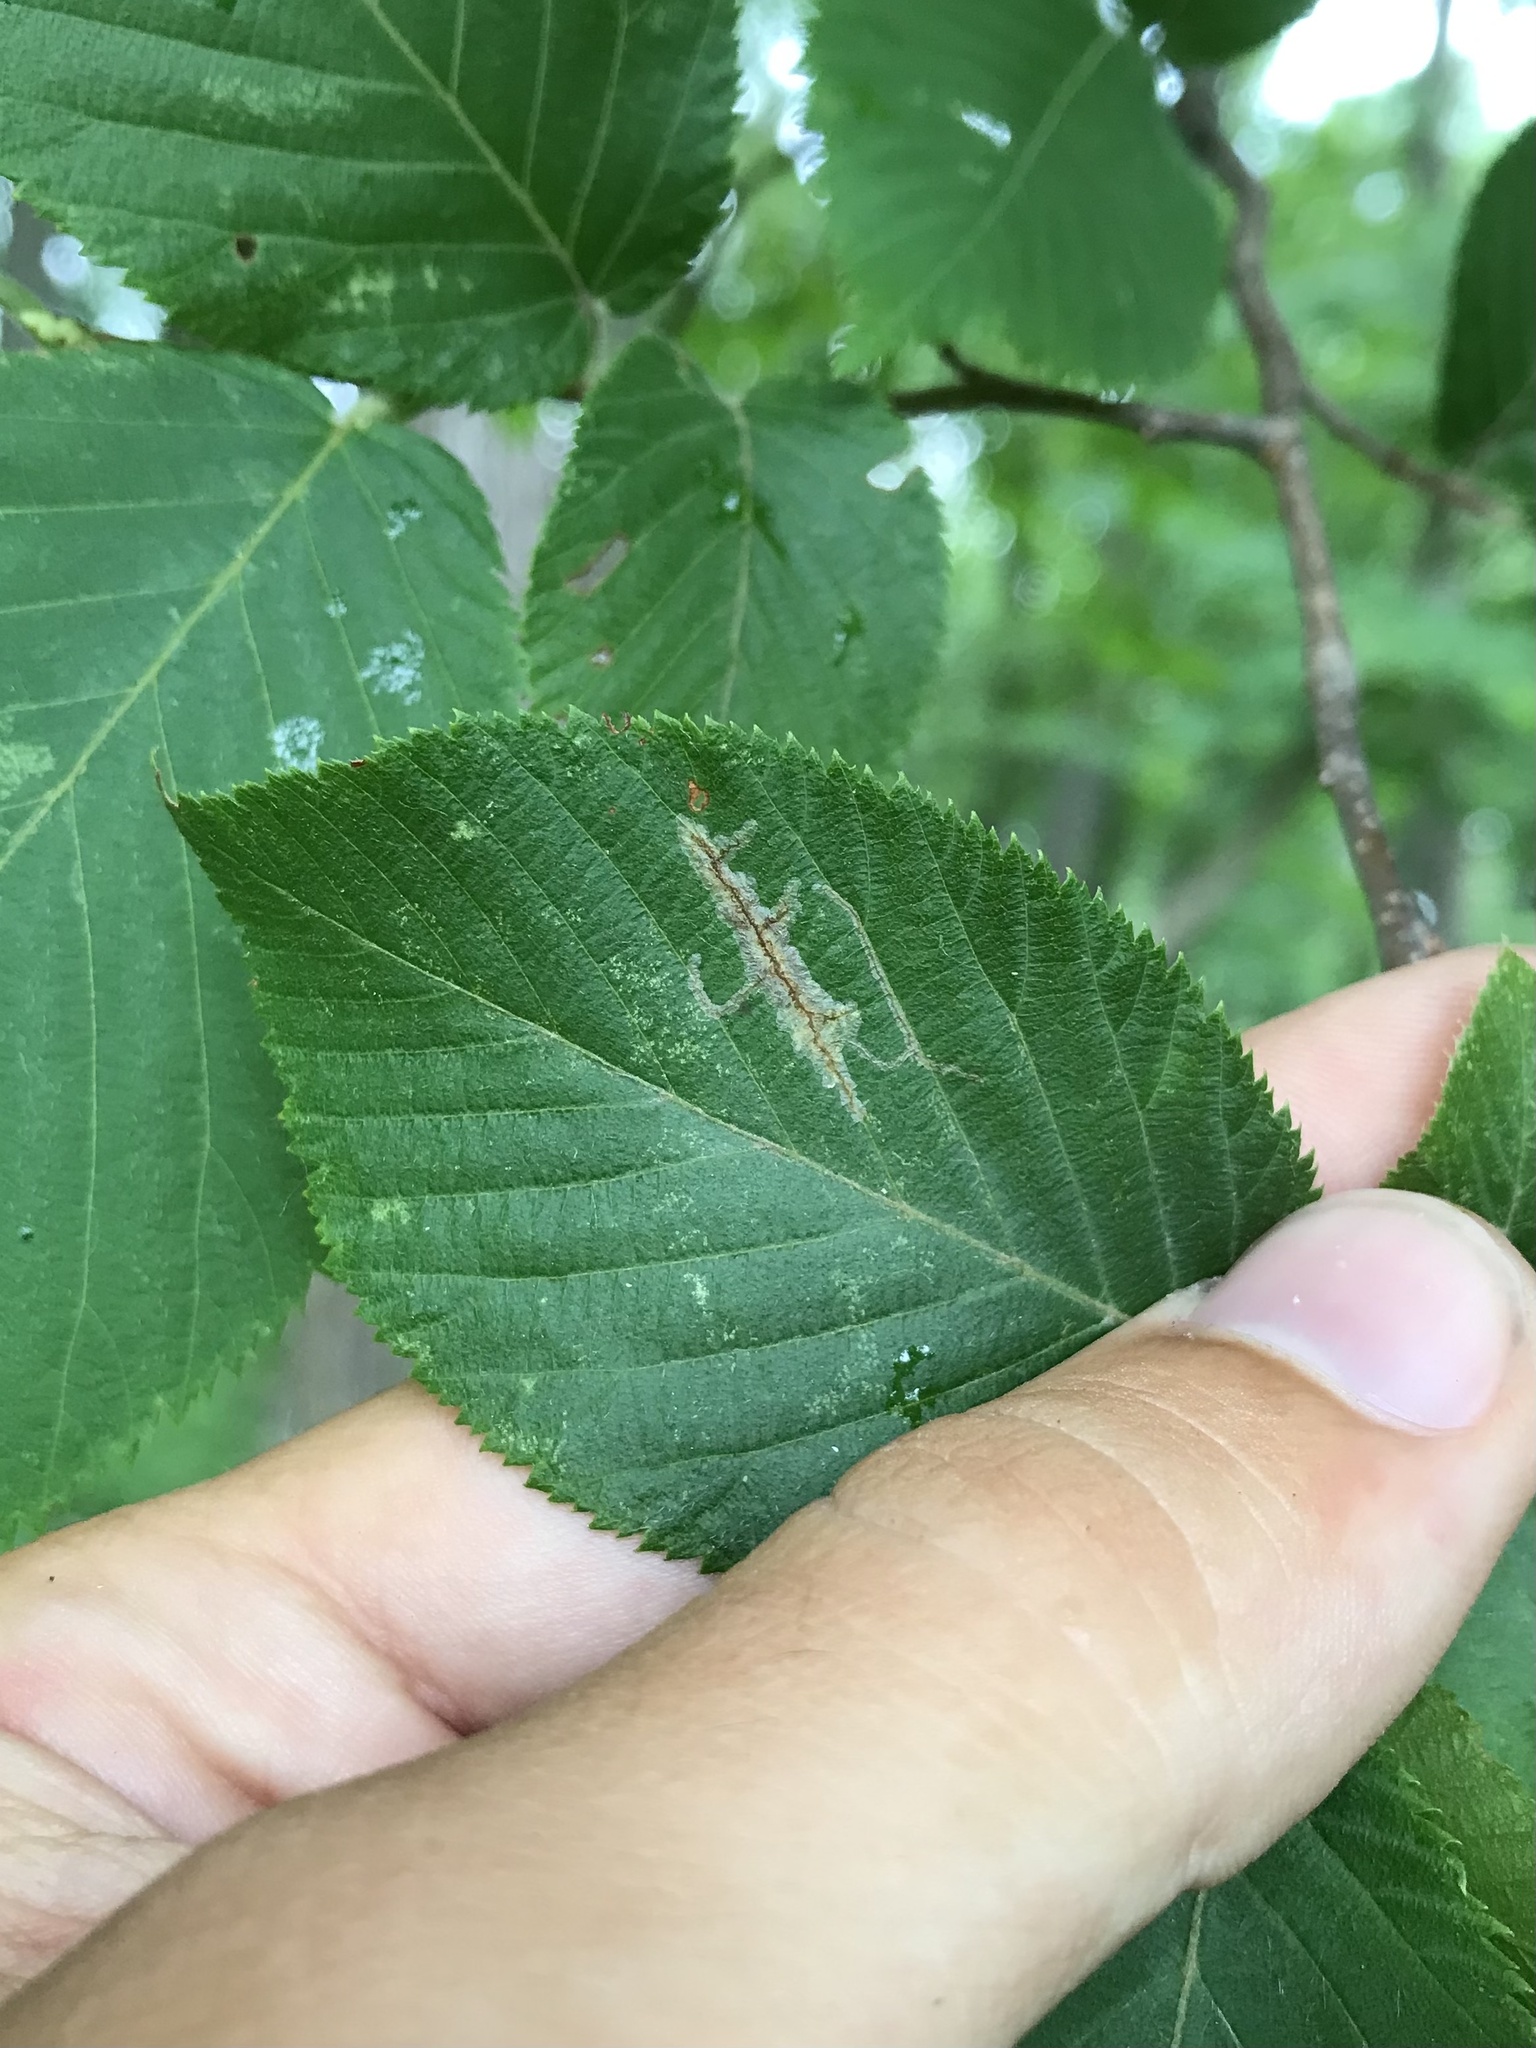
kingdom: Animalia
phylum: Arthropoda
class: Insecta
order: Lepidoptera
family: Gracillariidae
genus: Caloptilia
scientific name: Caloptilia ostryaeella
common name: Ironwood leafcone moth
